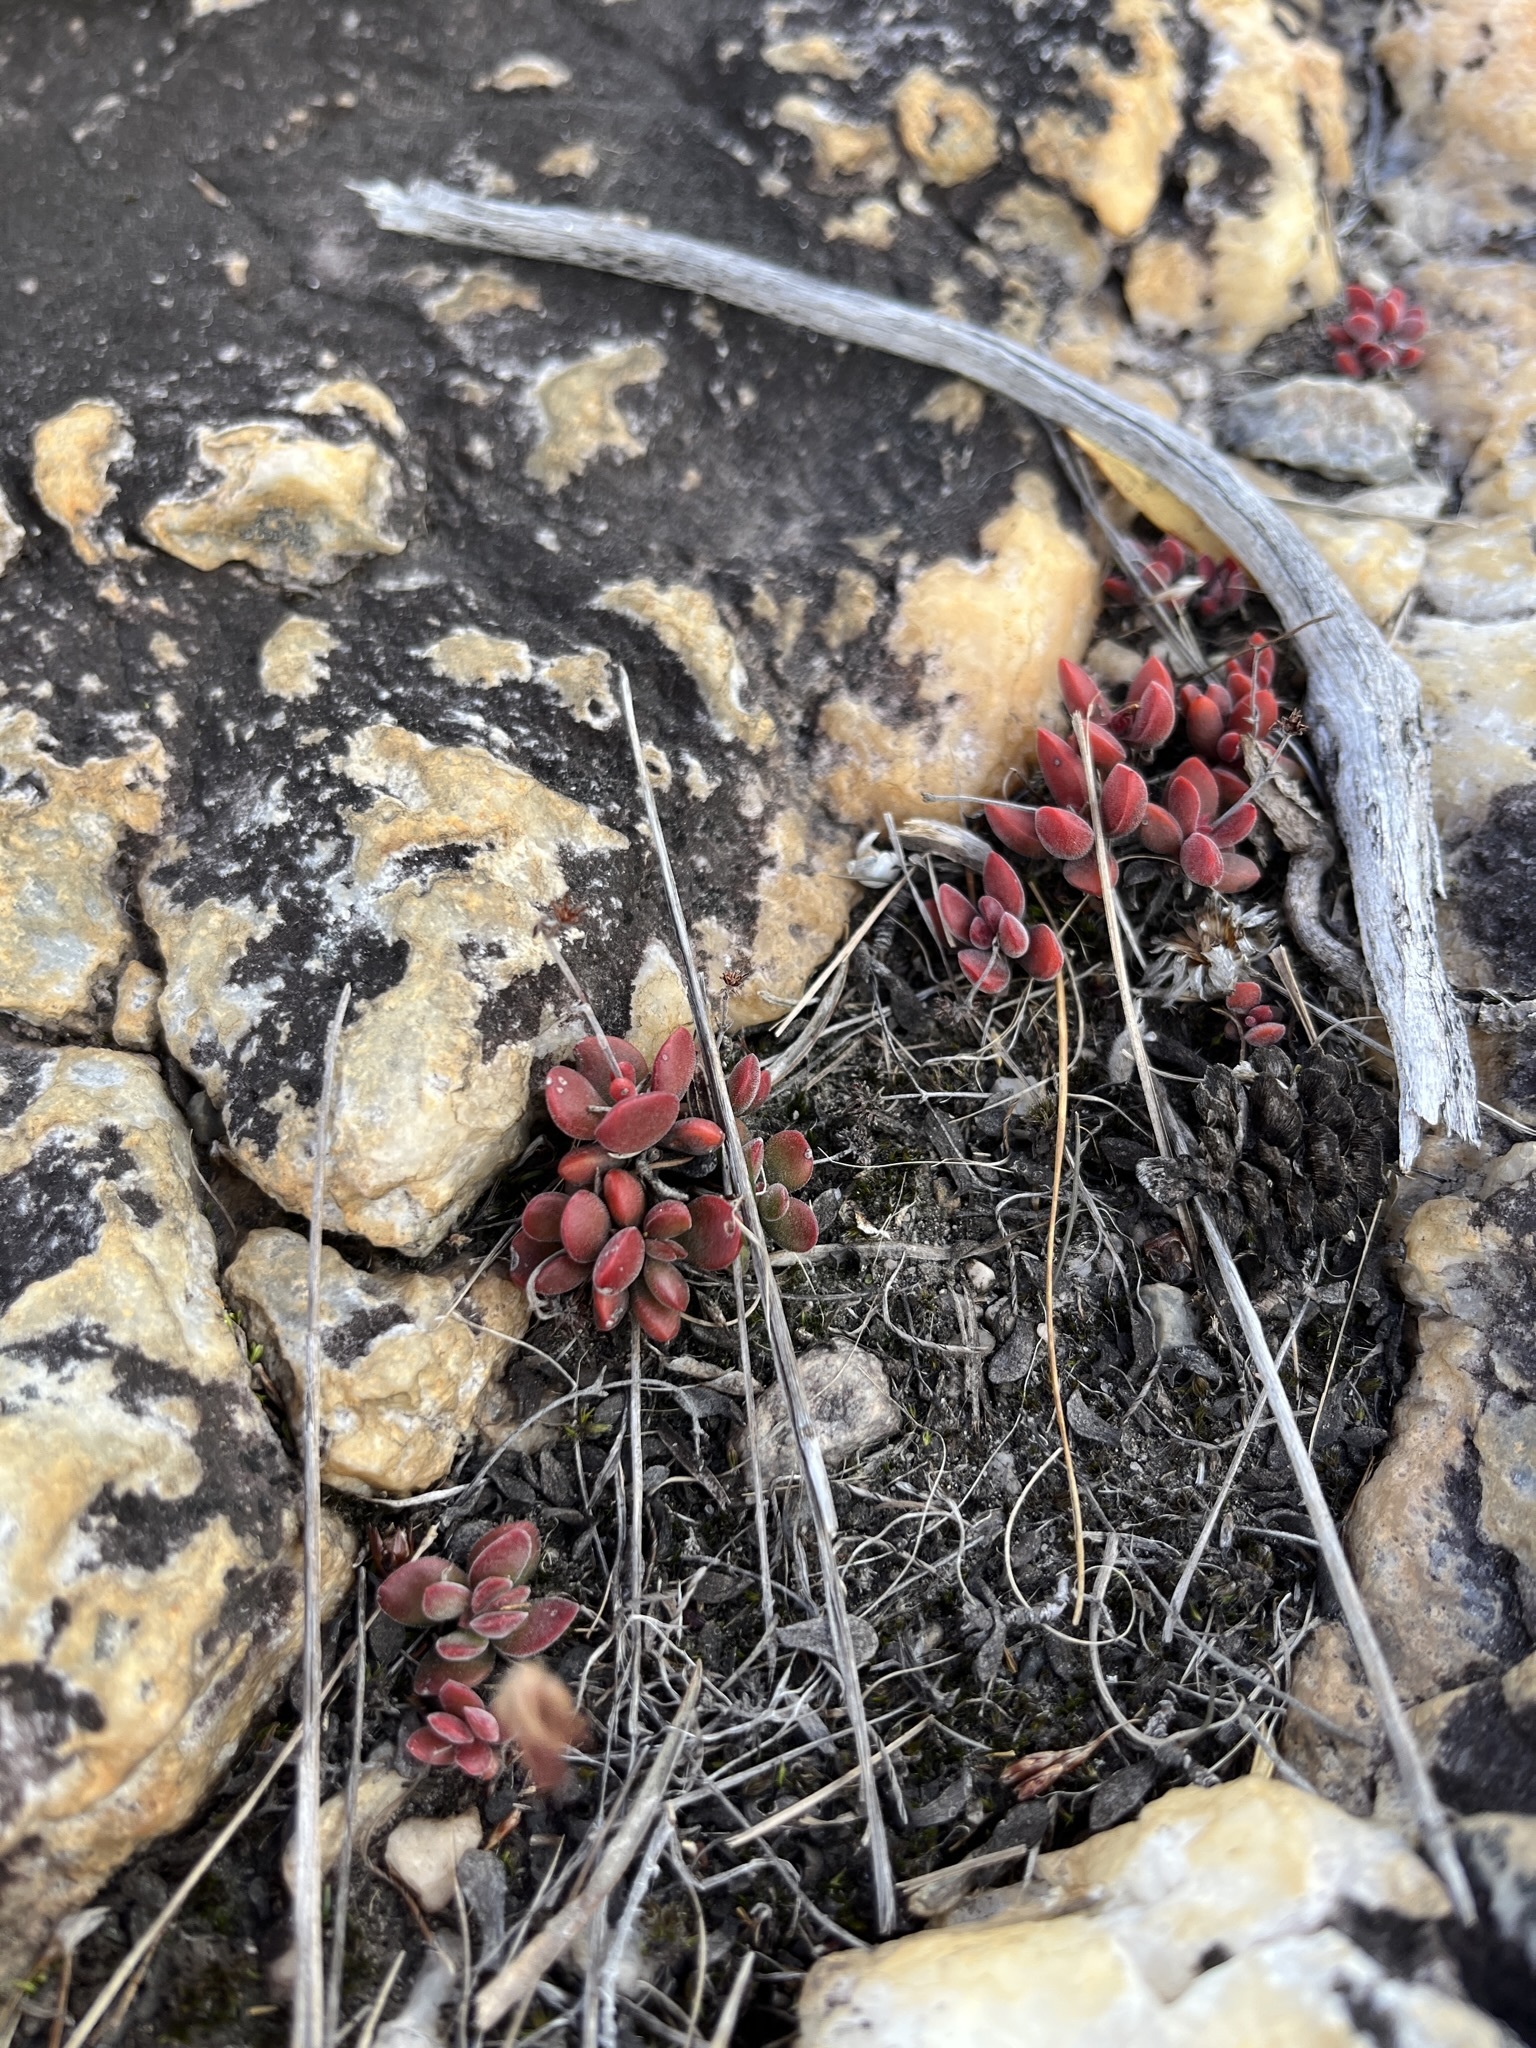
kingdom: Plantae
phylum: Tracheophyta
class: Magnoliopsida
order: Saxifragales
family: Crassulaceae
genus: Crassula
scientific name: Crassula atropurpurea
